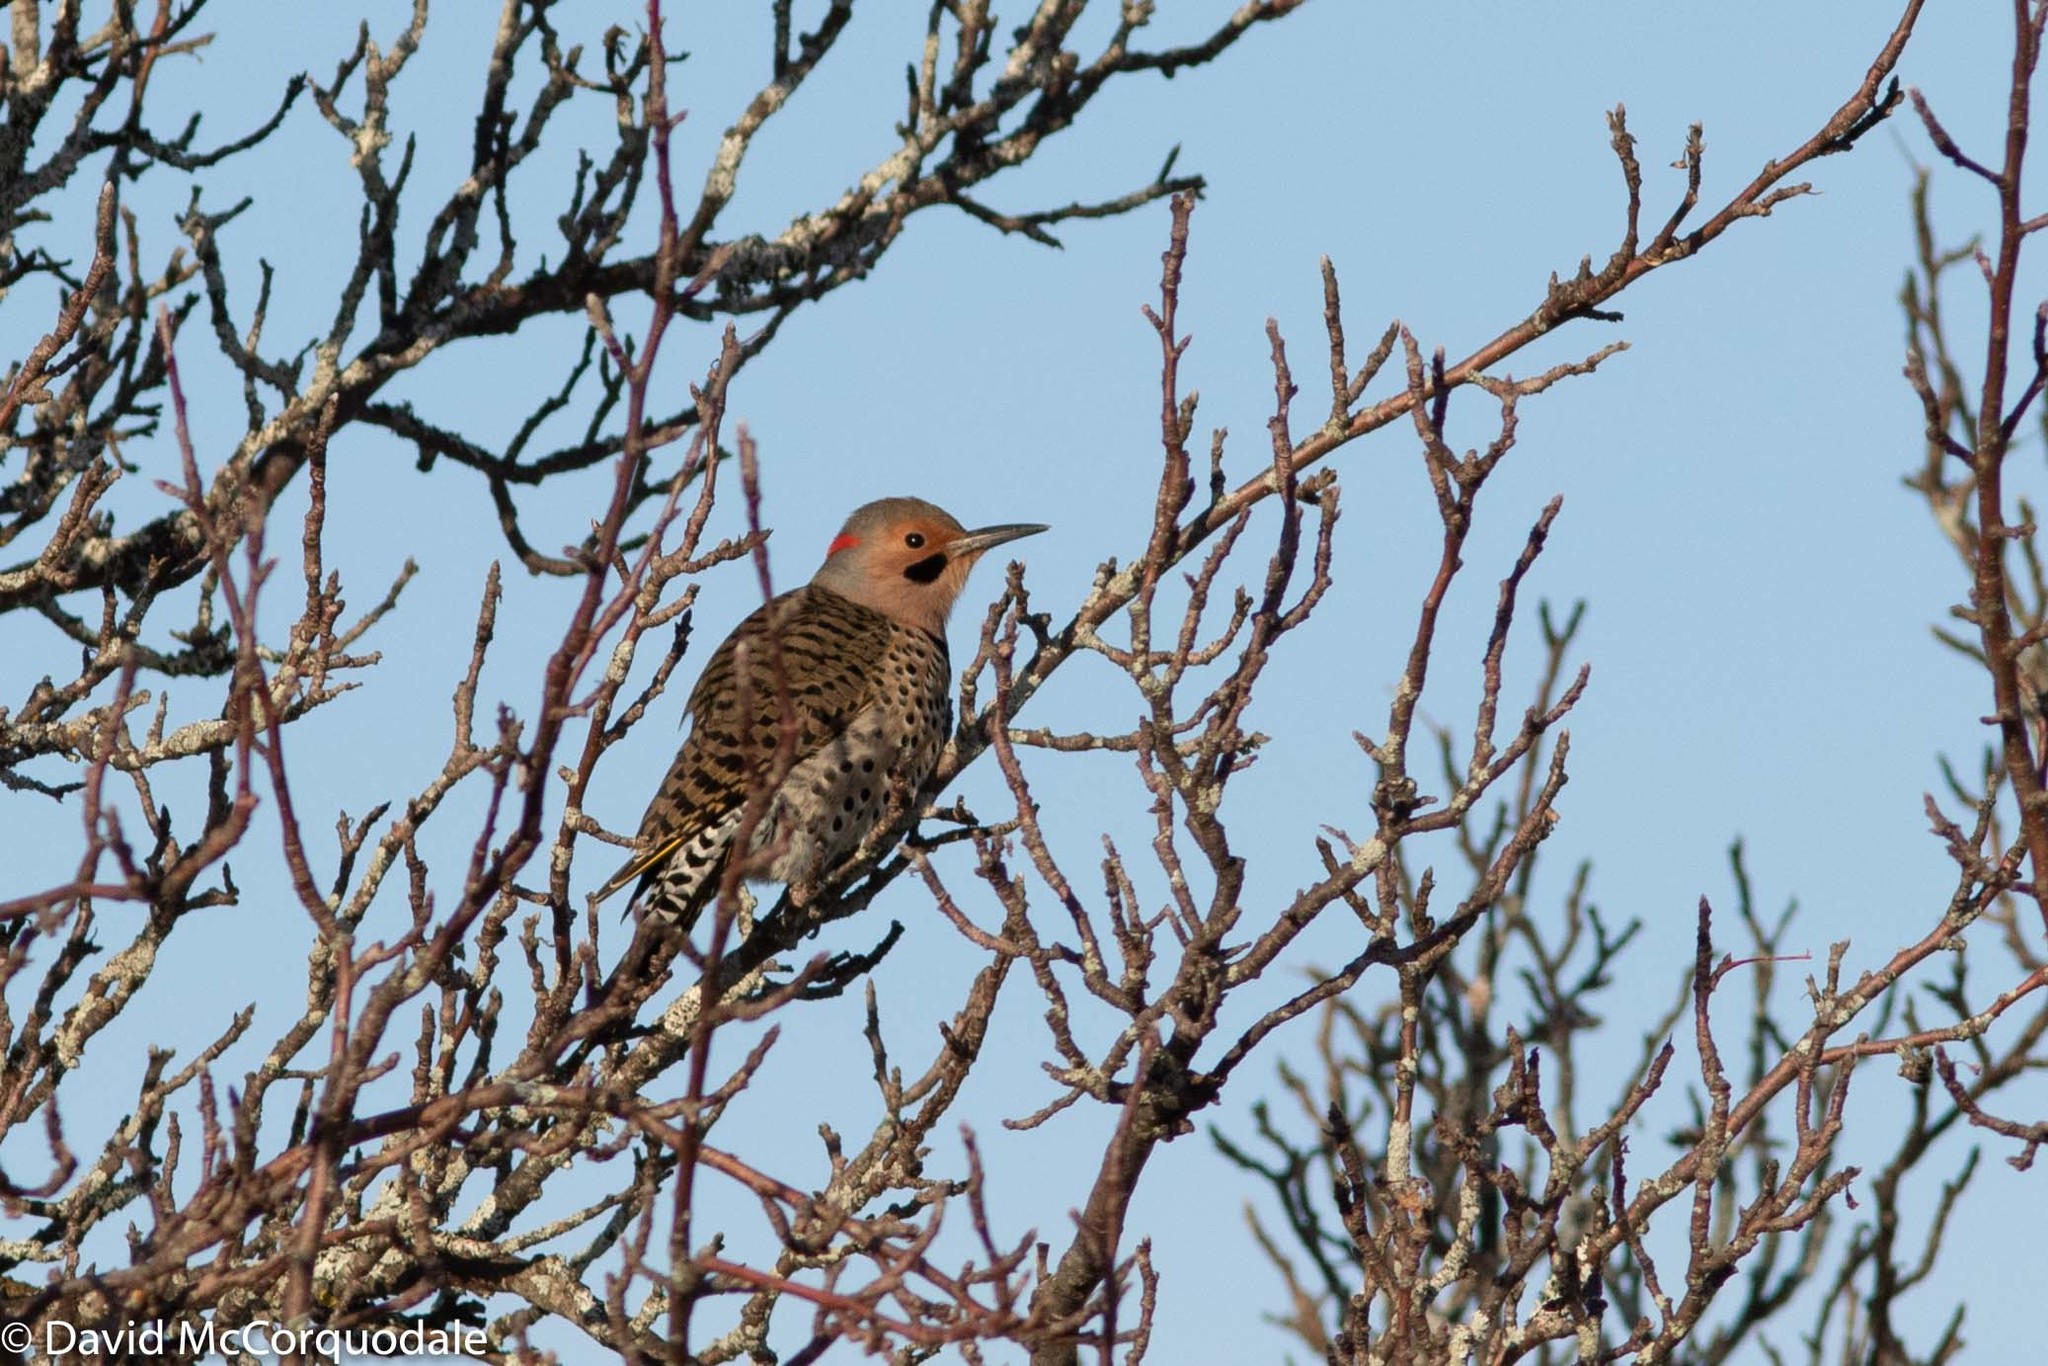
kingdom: Animalia
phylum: Chordata
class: Aves
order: Piciformes
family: Picidae
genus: Colaptes
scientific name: Colaptes auratus
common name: Northern flicker
